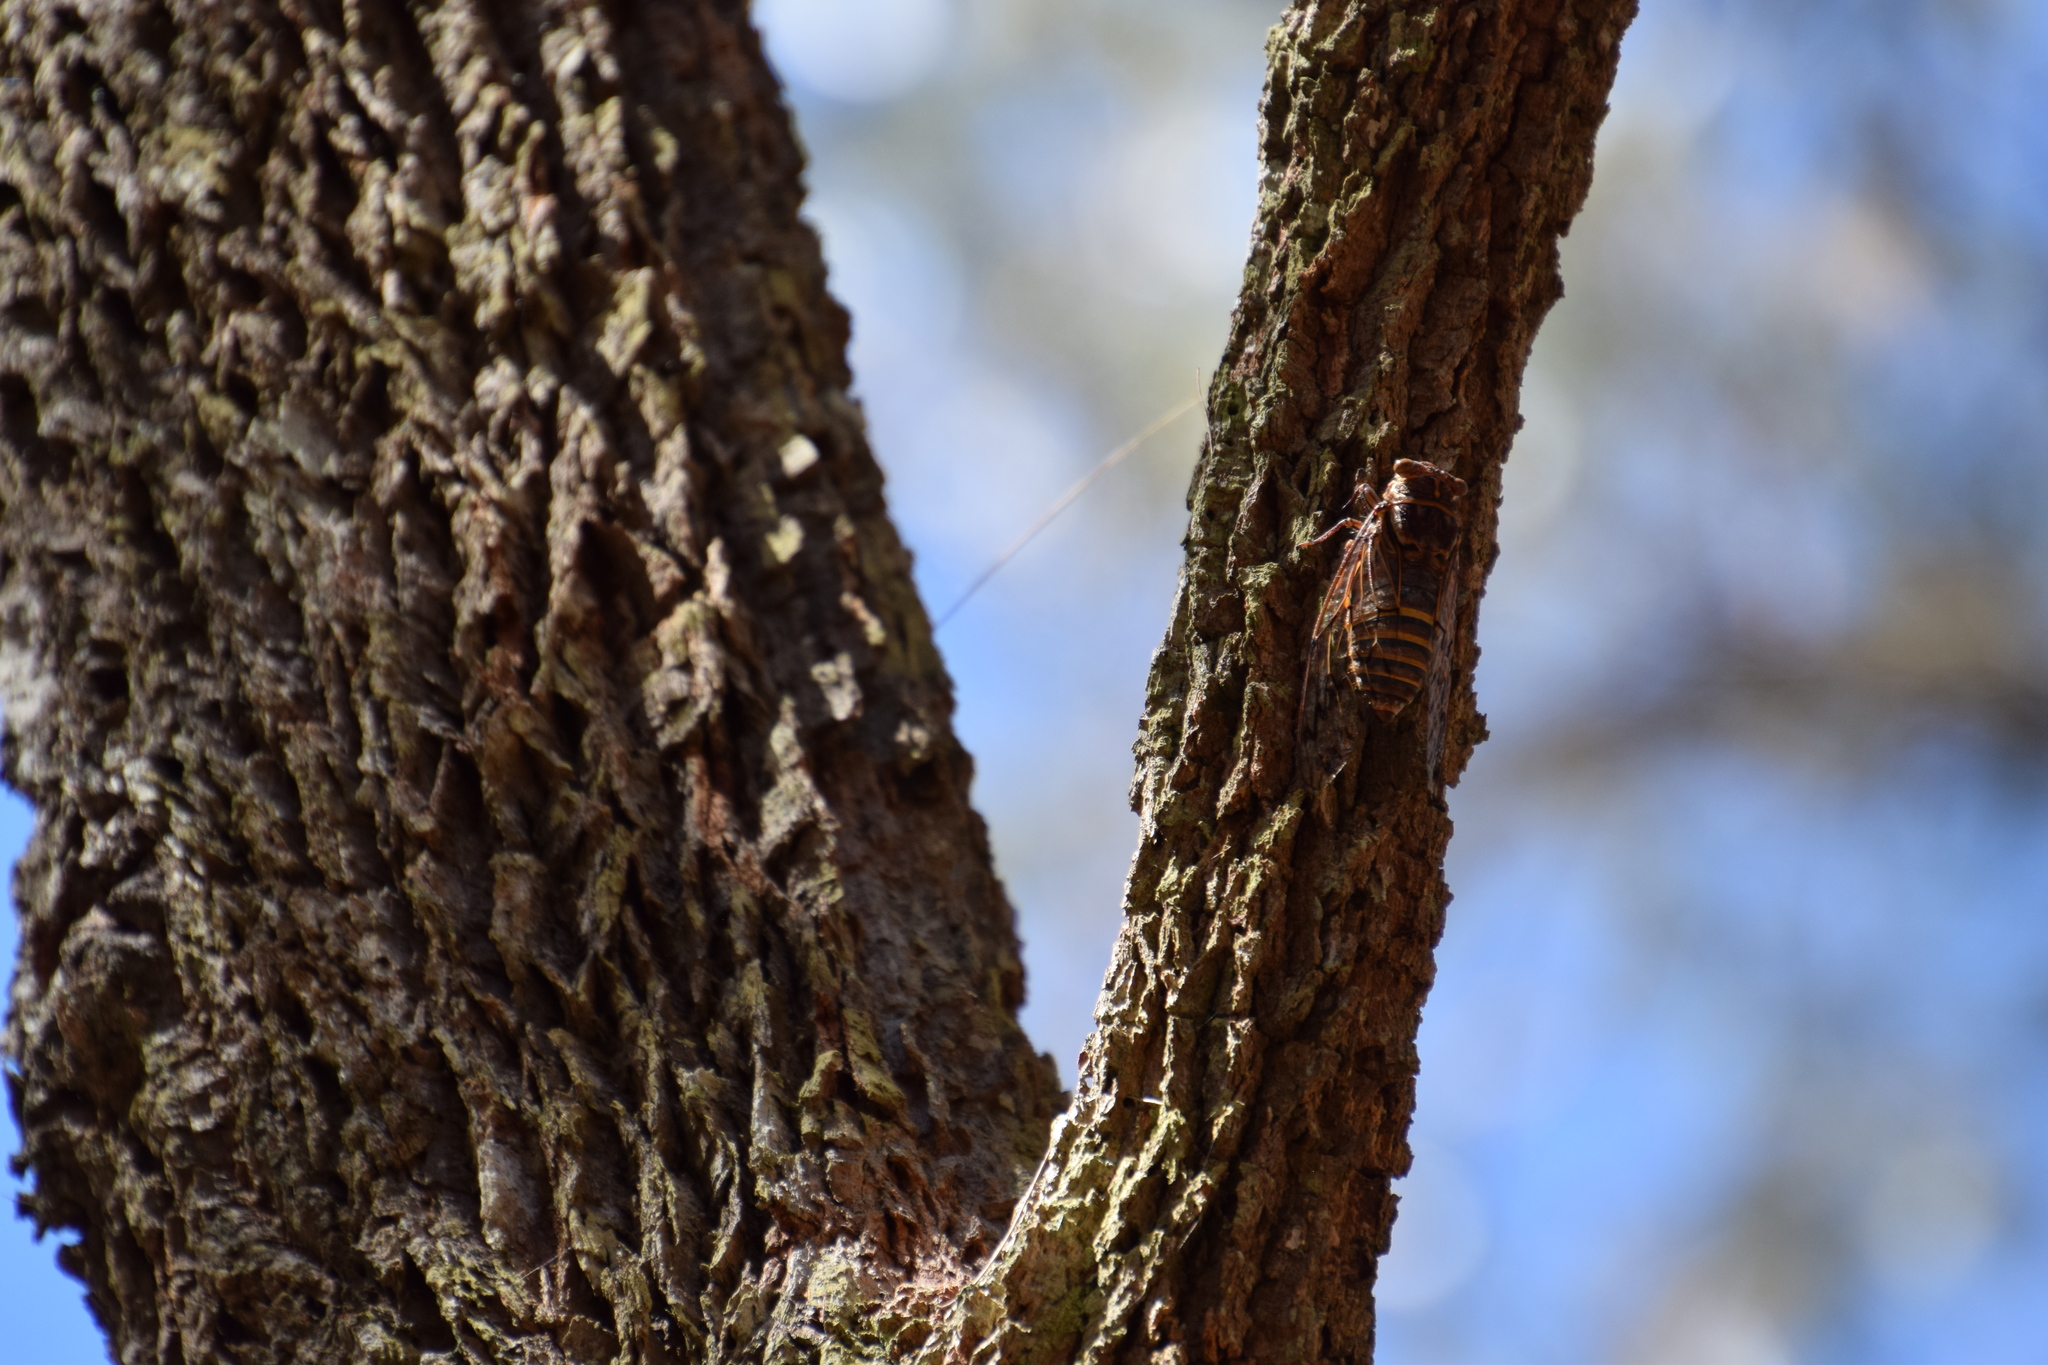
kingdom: Animalia
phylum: Arthropoda
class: Insecta
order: Hemiptera
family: Cicadidae
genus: Henicopsaltria
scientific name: Henicopsaltria eydouxii
